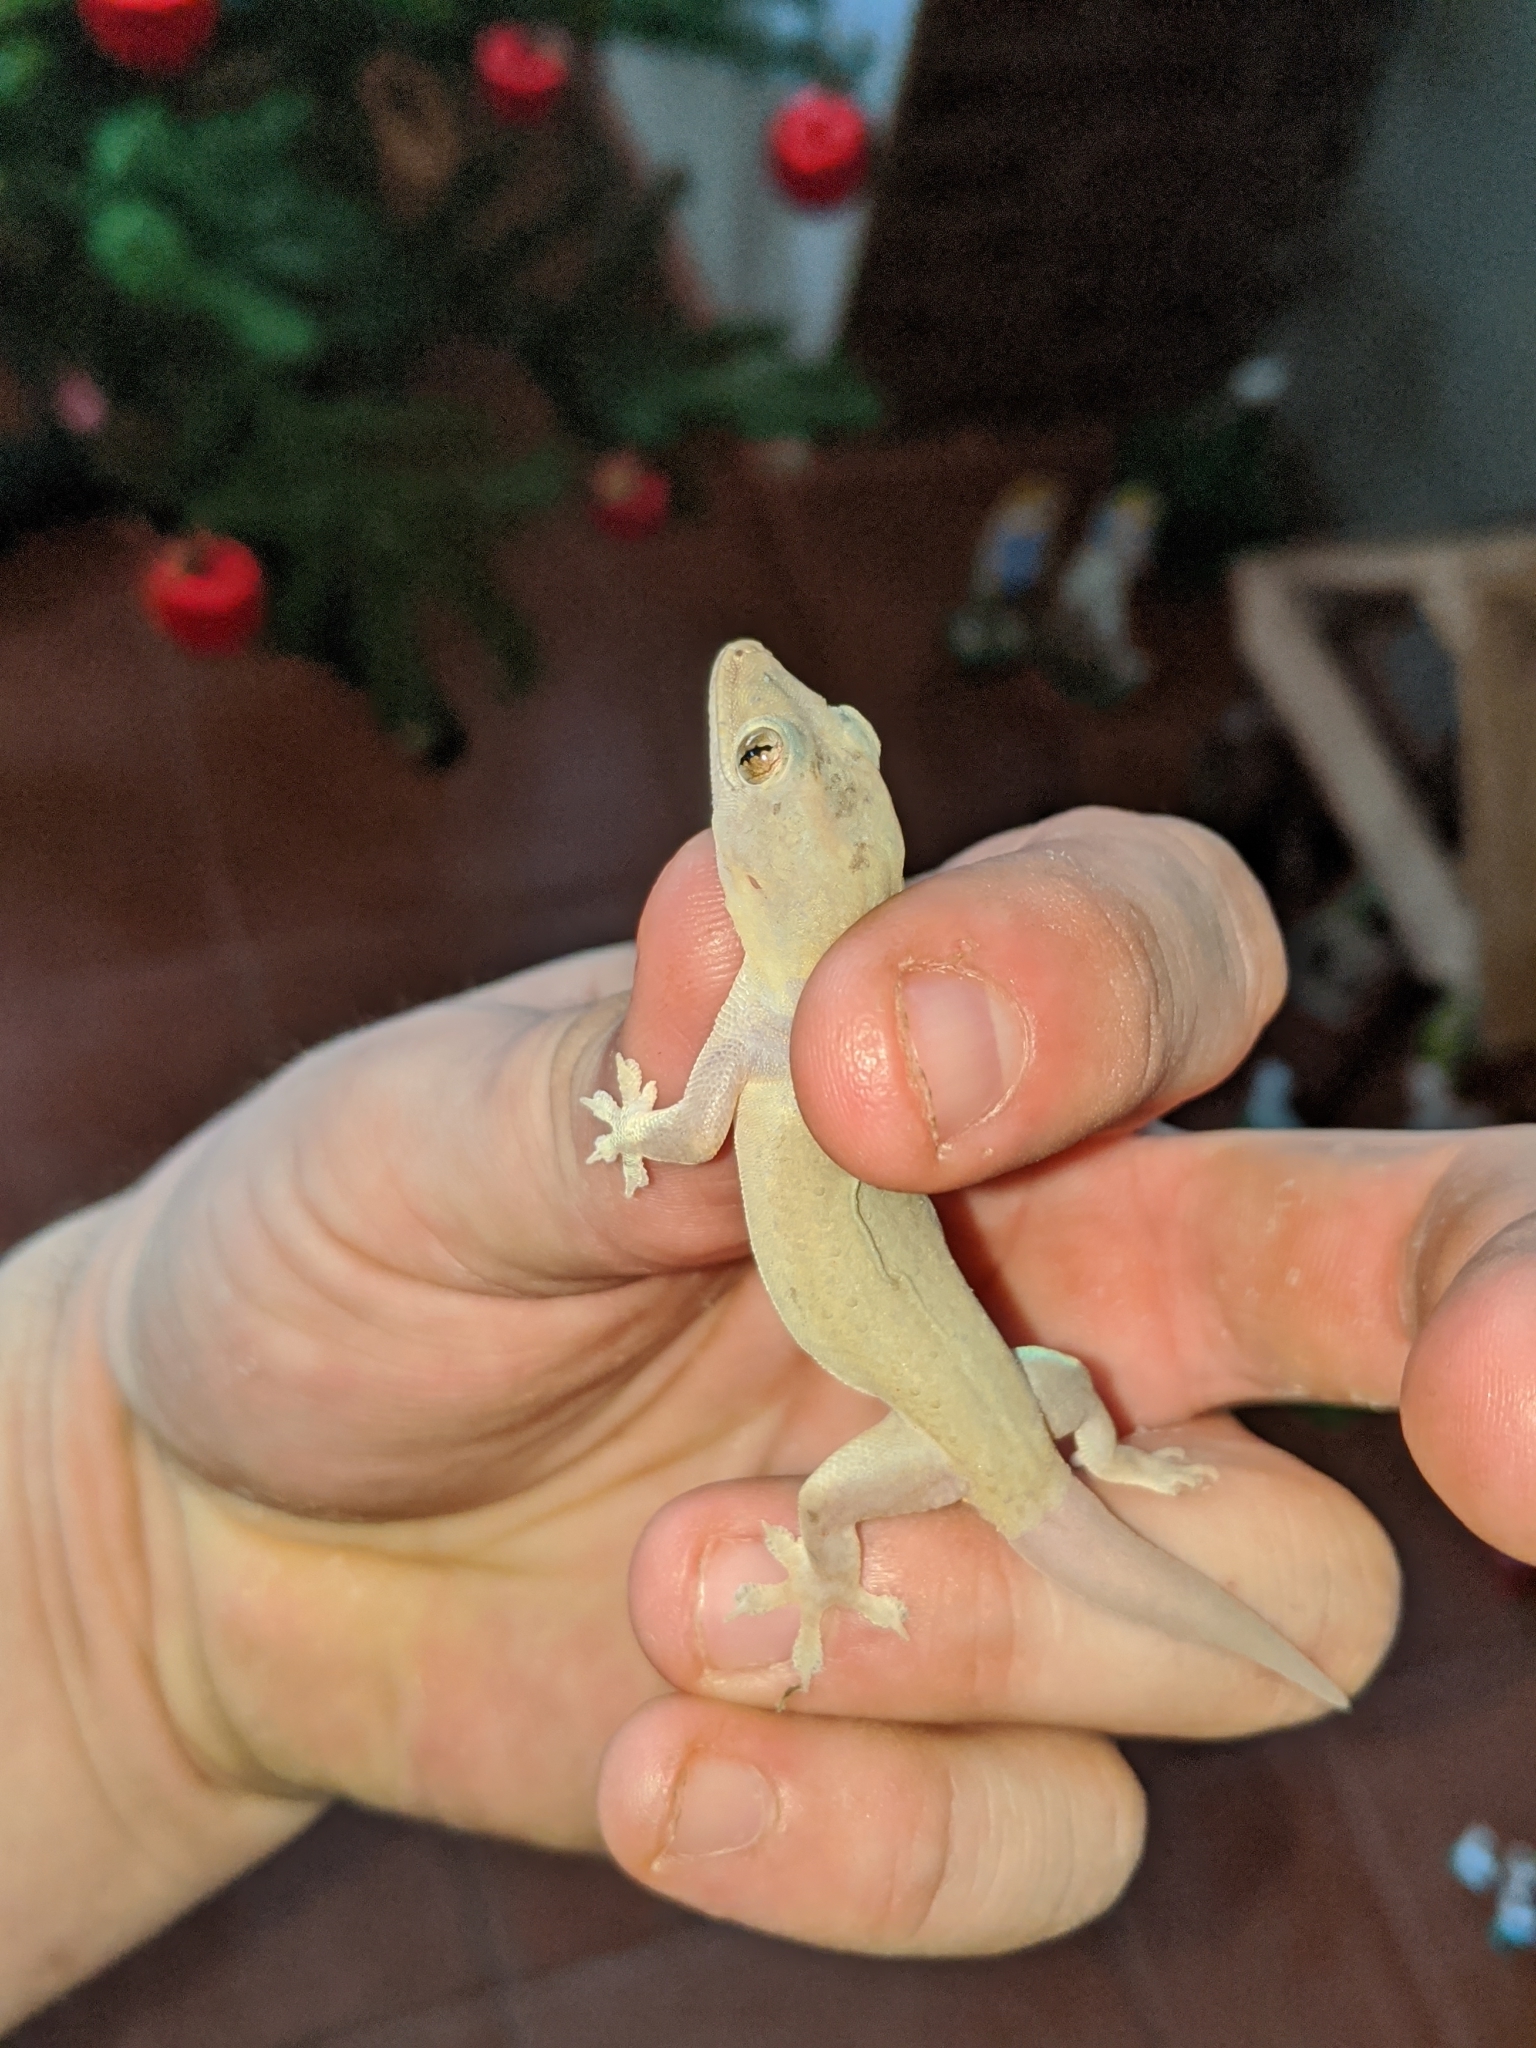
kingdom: Animalia
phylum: Chordata
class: Squamata
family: Gekkonidae
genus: Hemidactylus
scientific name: Hemidactylus frenatus
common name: Common house gecko
